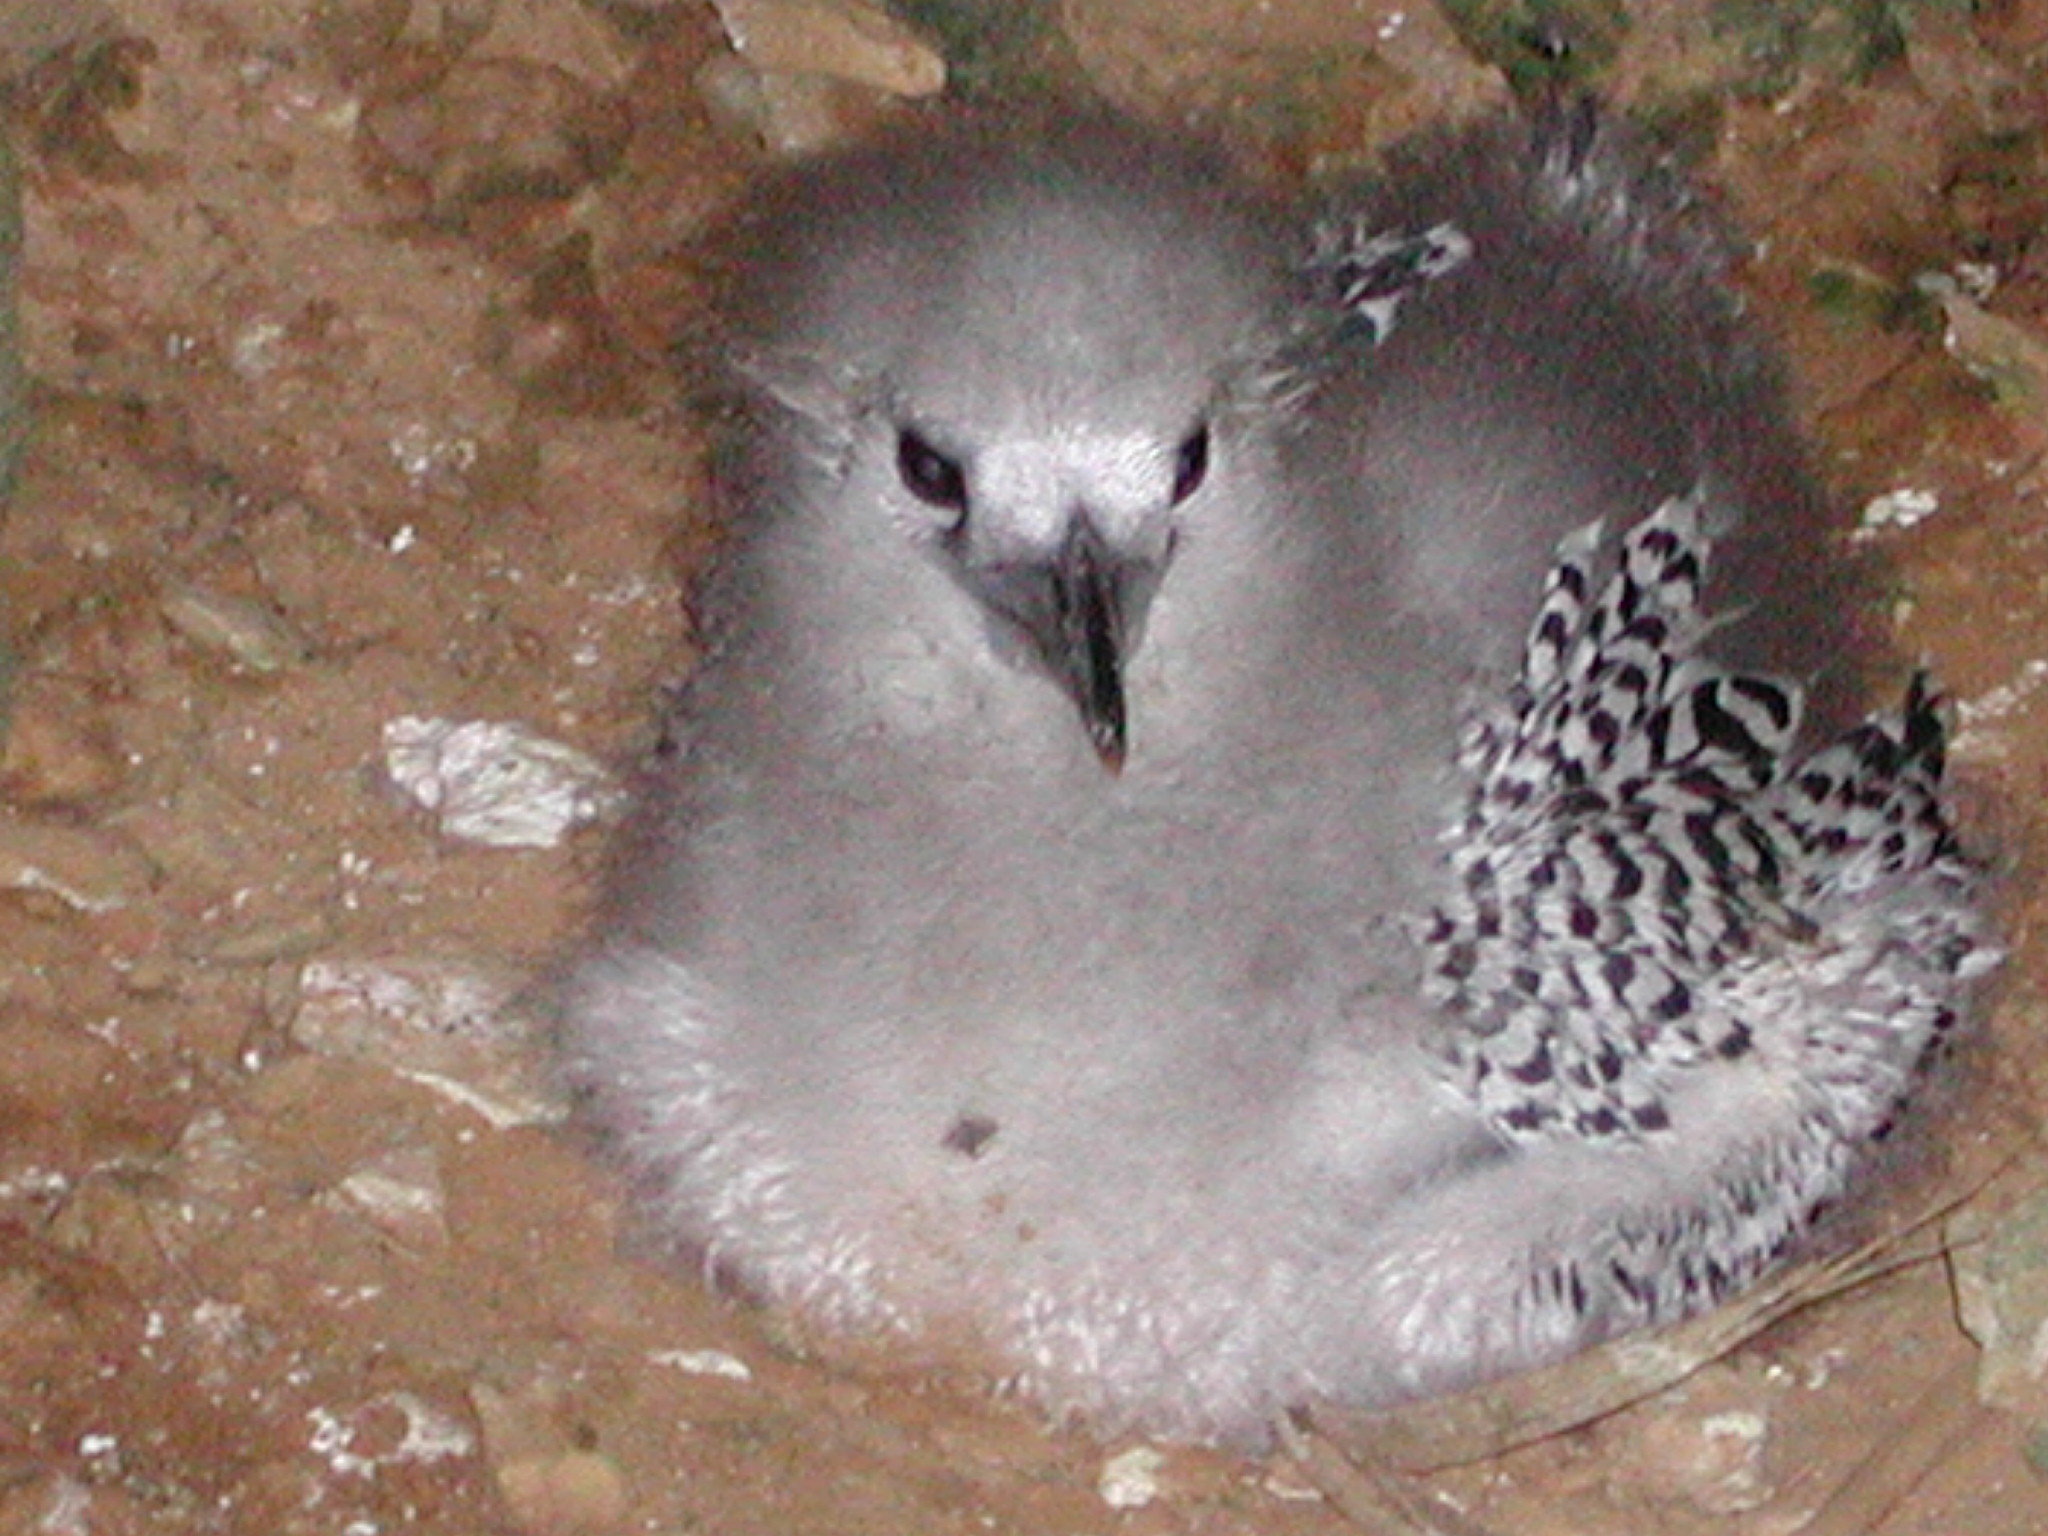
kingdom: Animalia
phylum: Chordata
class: Aves
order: Phaethontiformes
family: Phaethontidae
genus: Phaethon
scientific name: Phaethon rubricauda
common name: Red-tailed tropicbird
